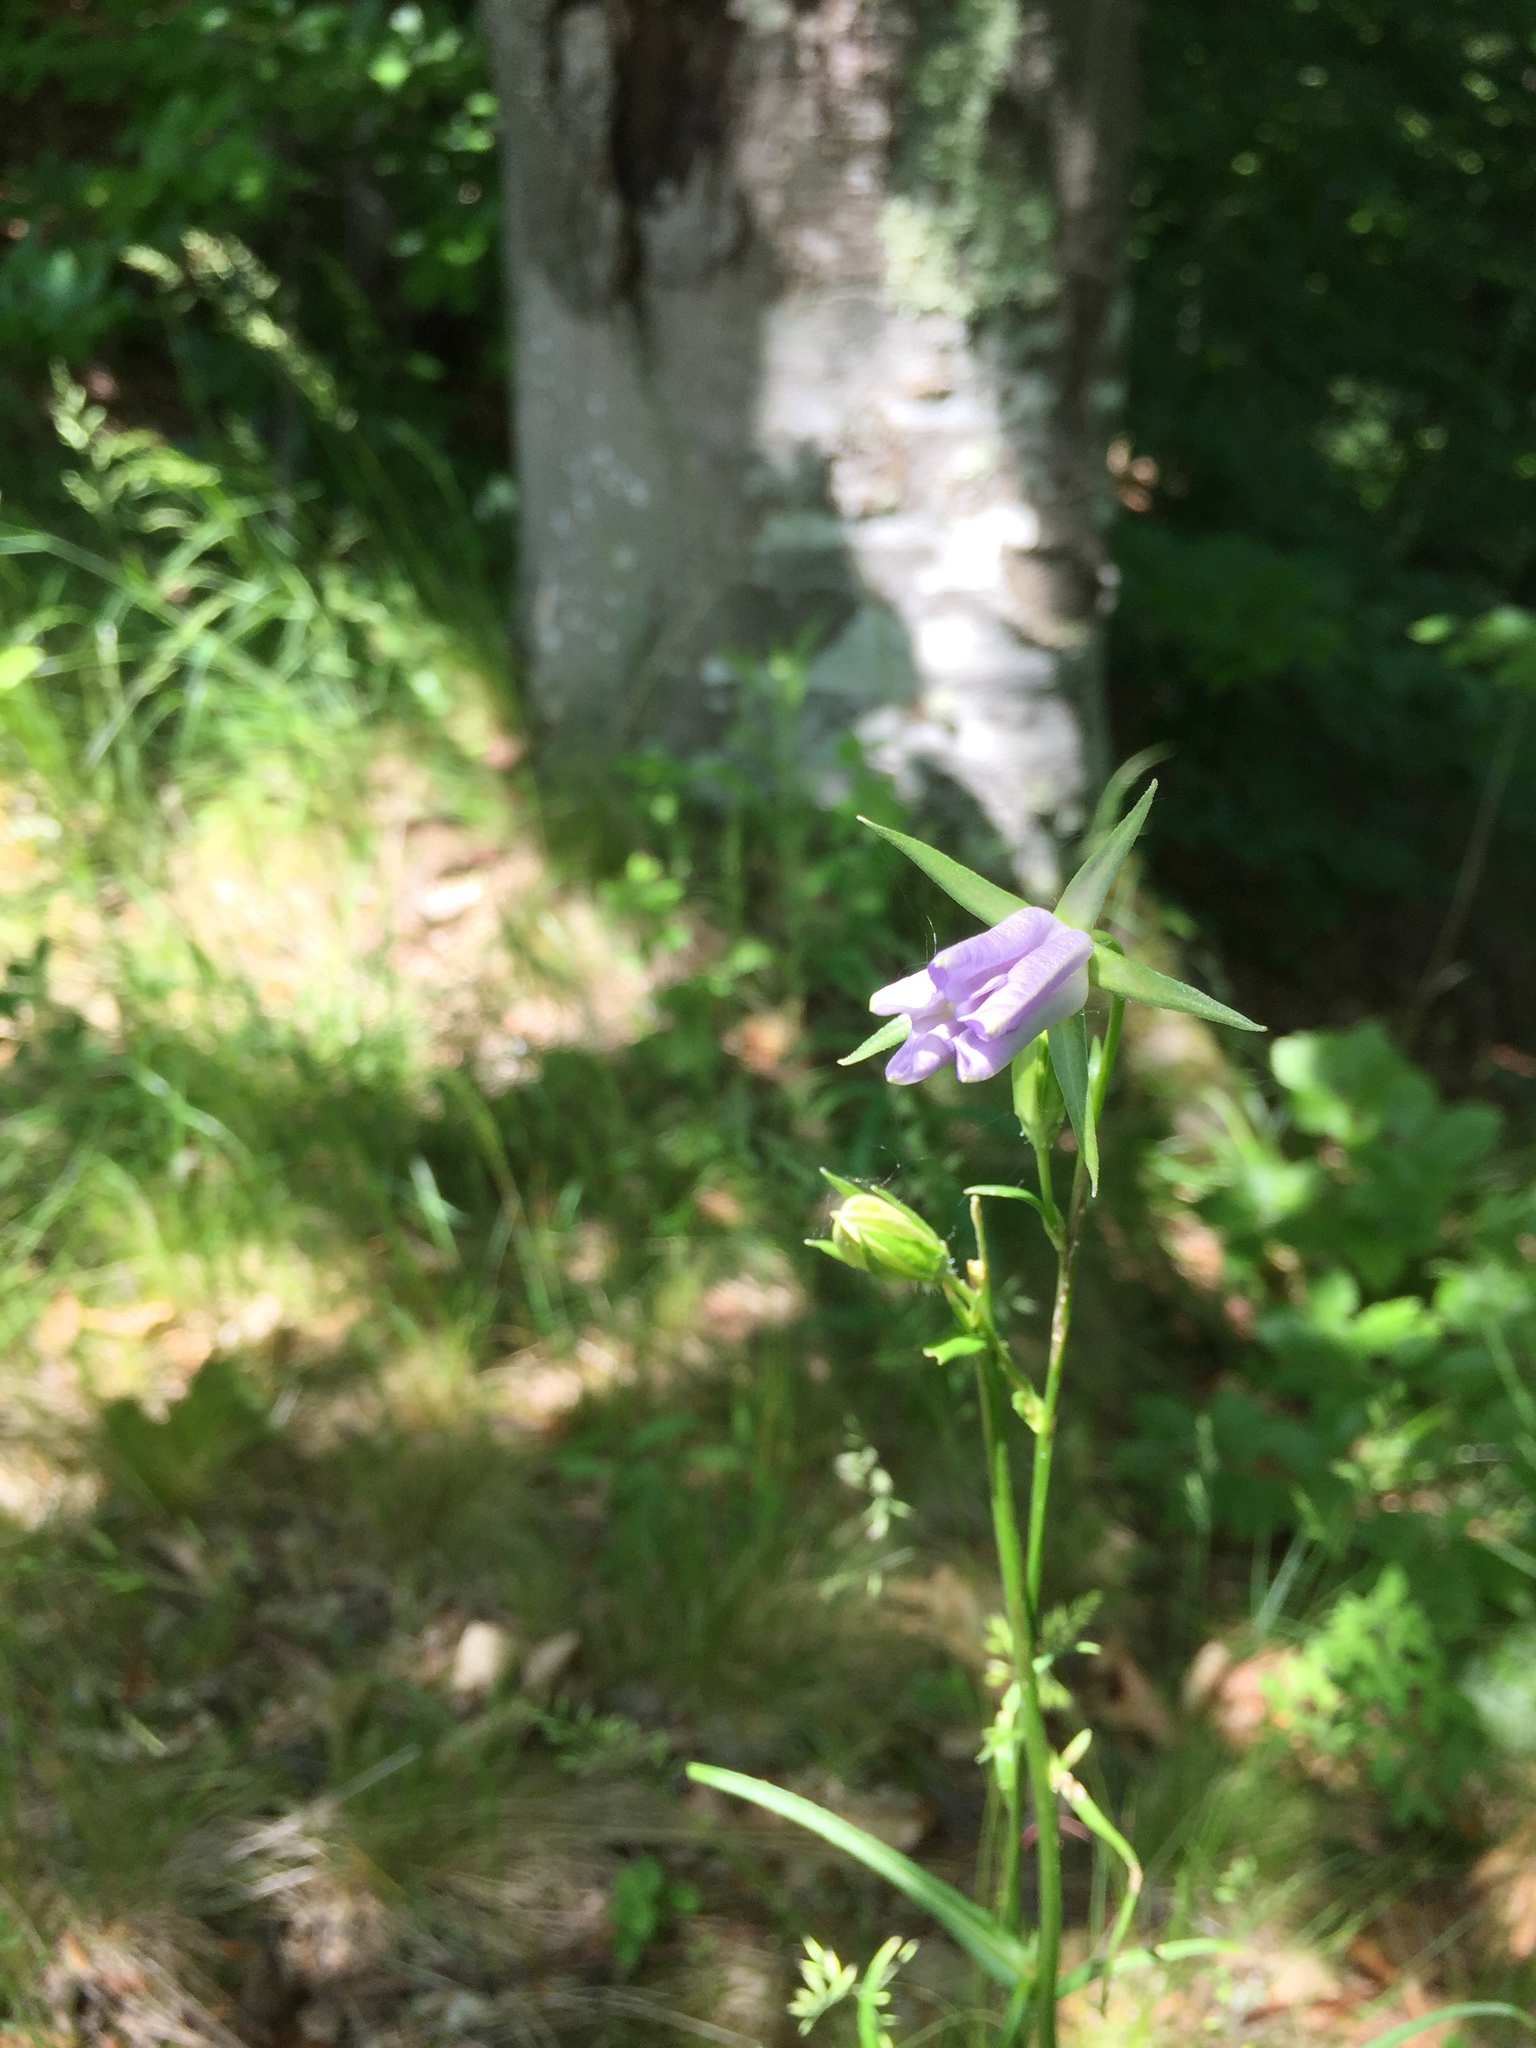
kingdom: Plantae
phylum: Tracheophyta
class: Magnoliopsida
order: Asterales
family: Campanulaceae
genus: Campanula
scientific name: Campanula persicifolia
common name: Peach-leaved bellflower
